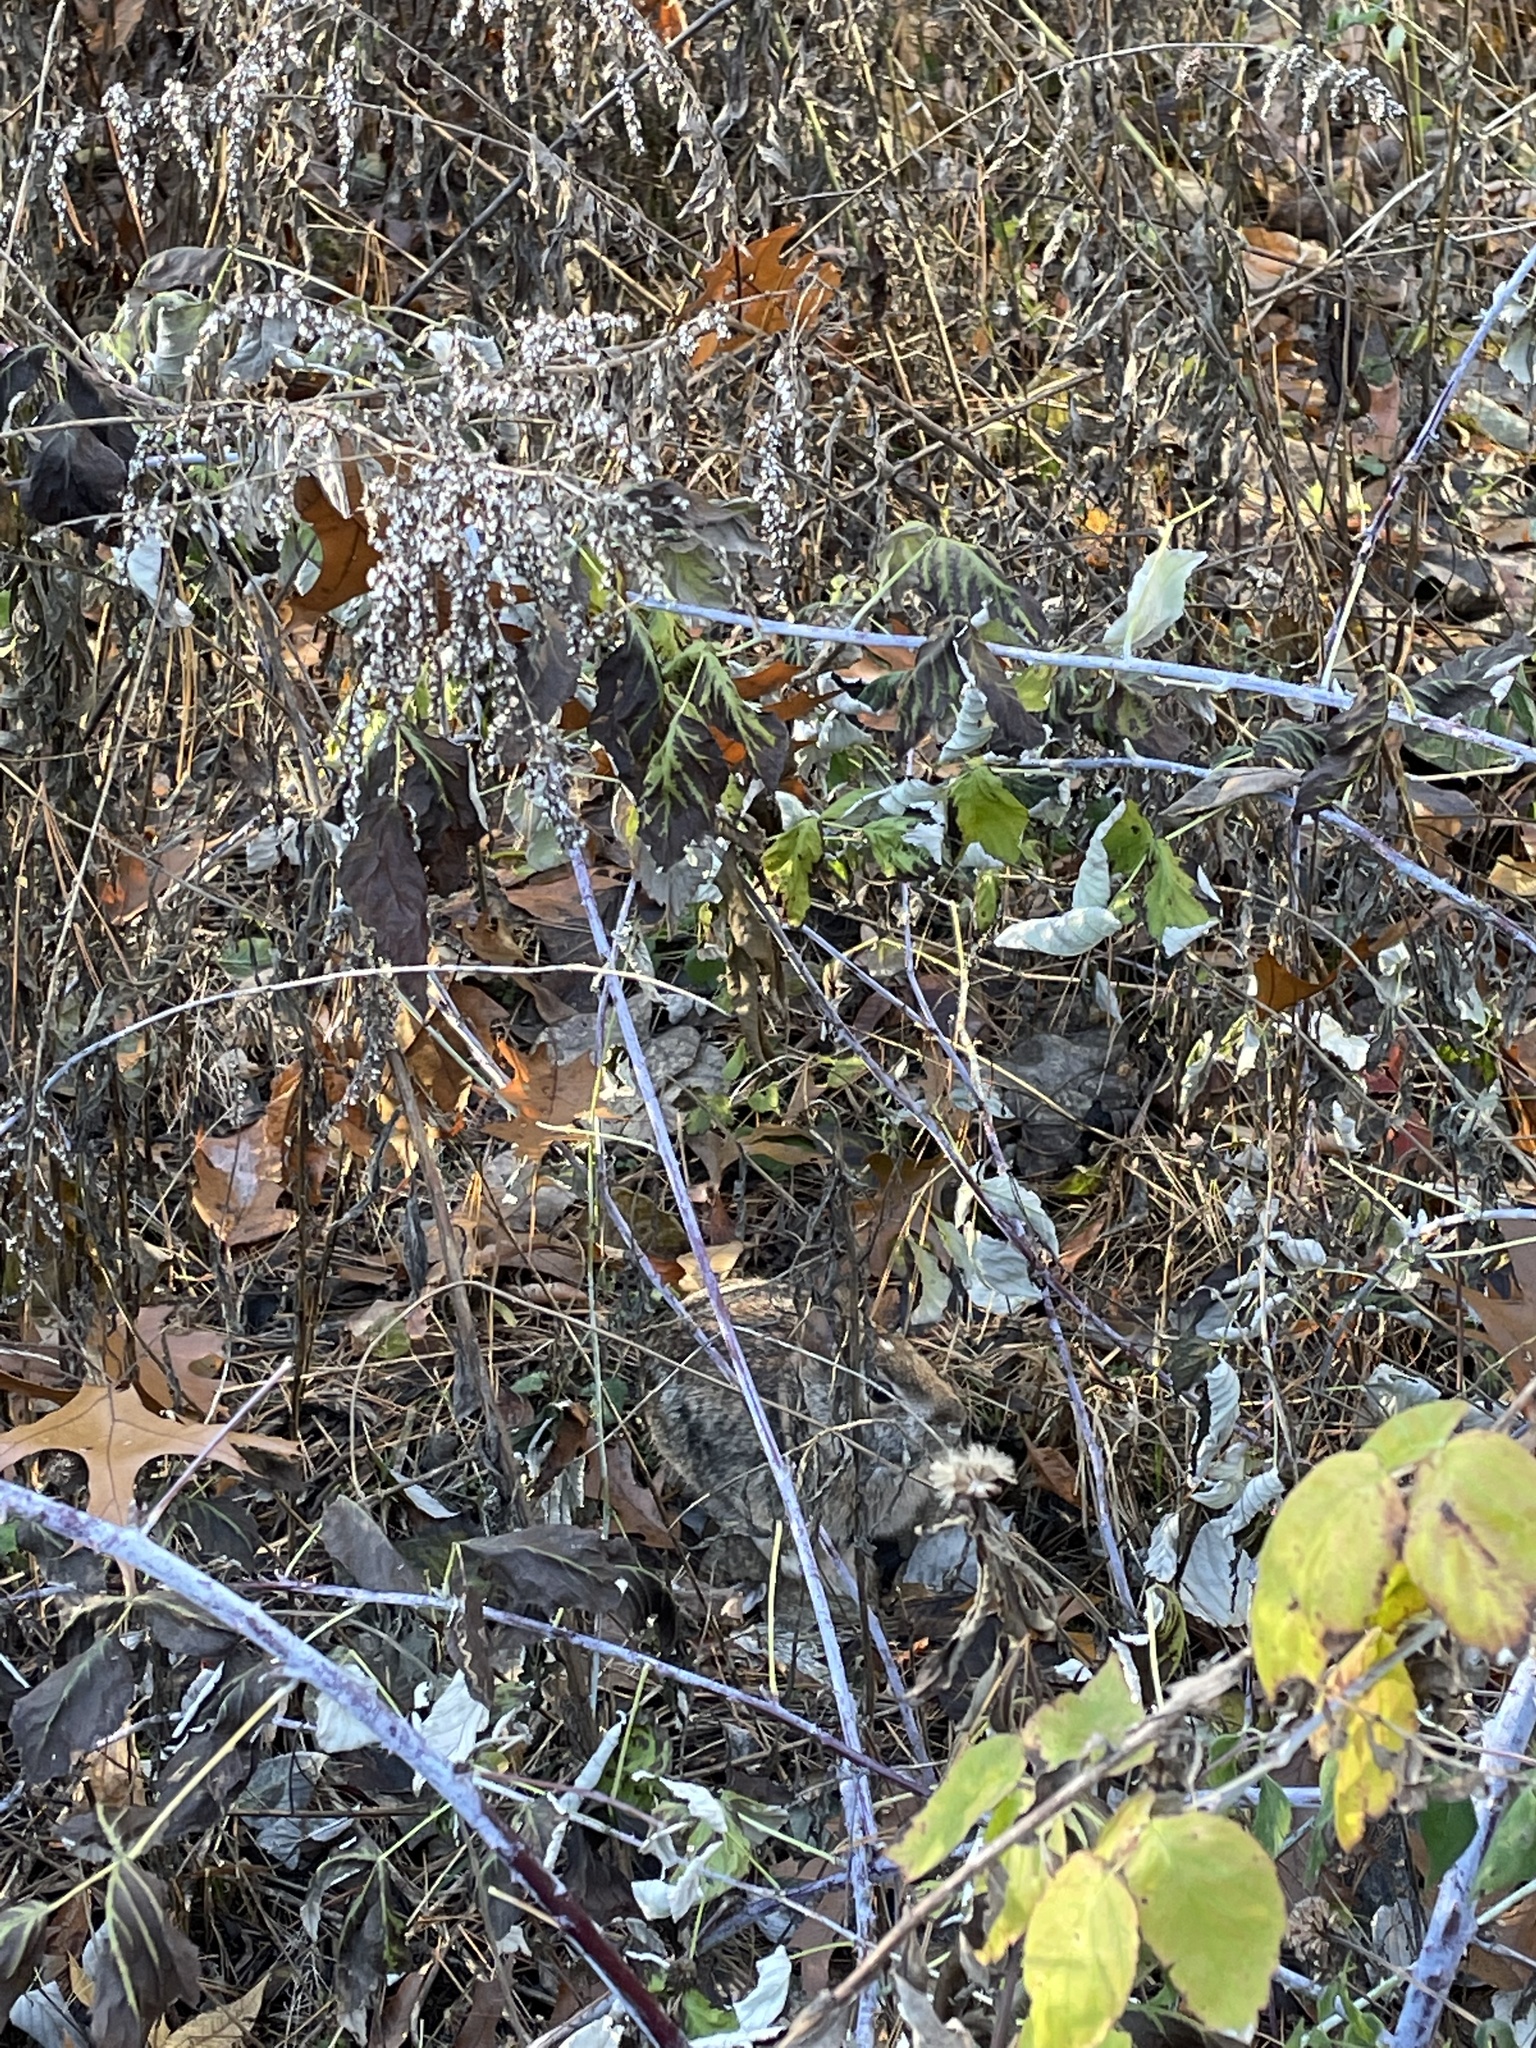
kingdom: Animalia
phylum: Chordata
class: Mammalia
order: Lagomorpha
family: Leporidae
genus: Sylvilagus
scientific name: Sylvilagus floridanus
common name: Eastern cottontail
